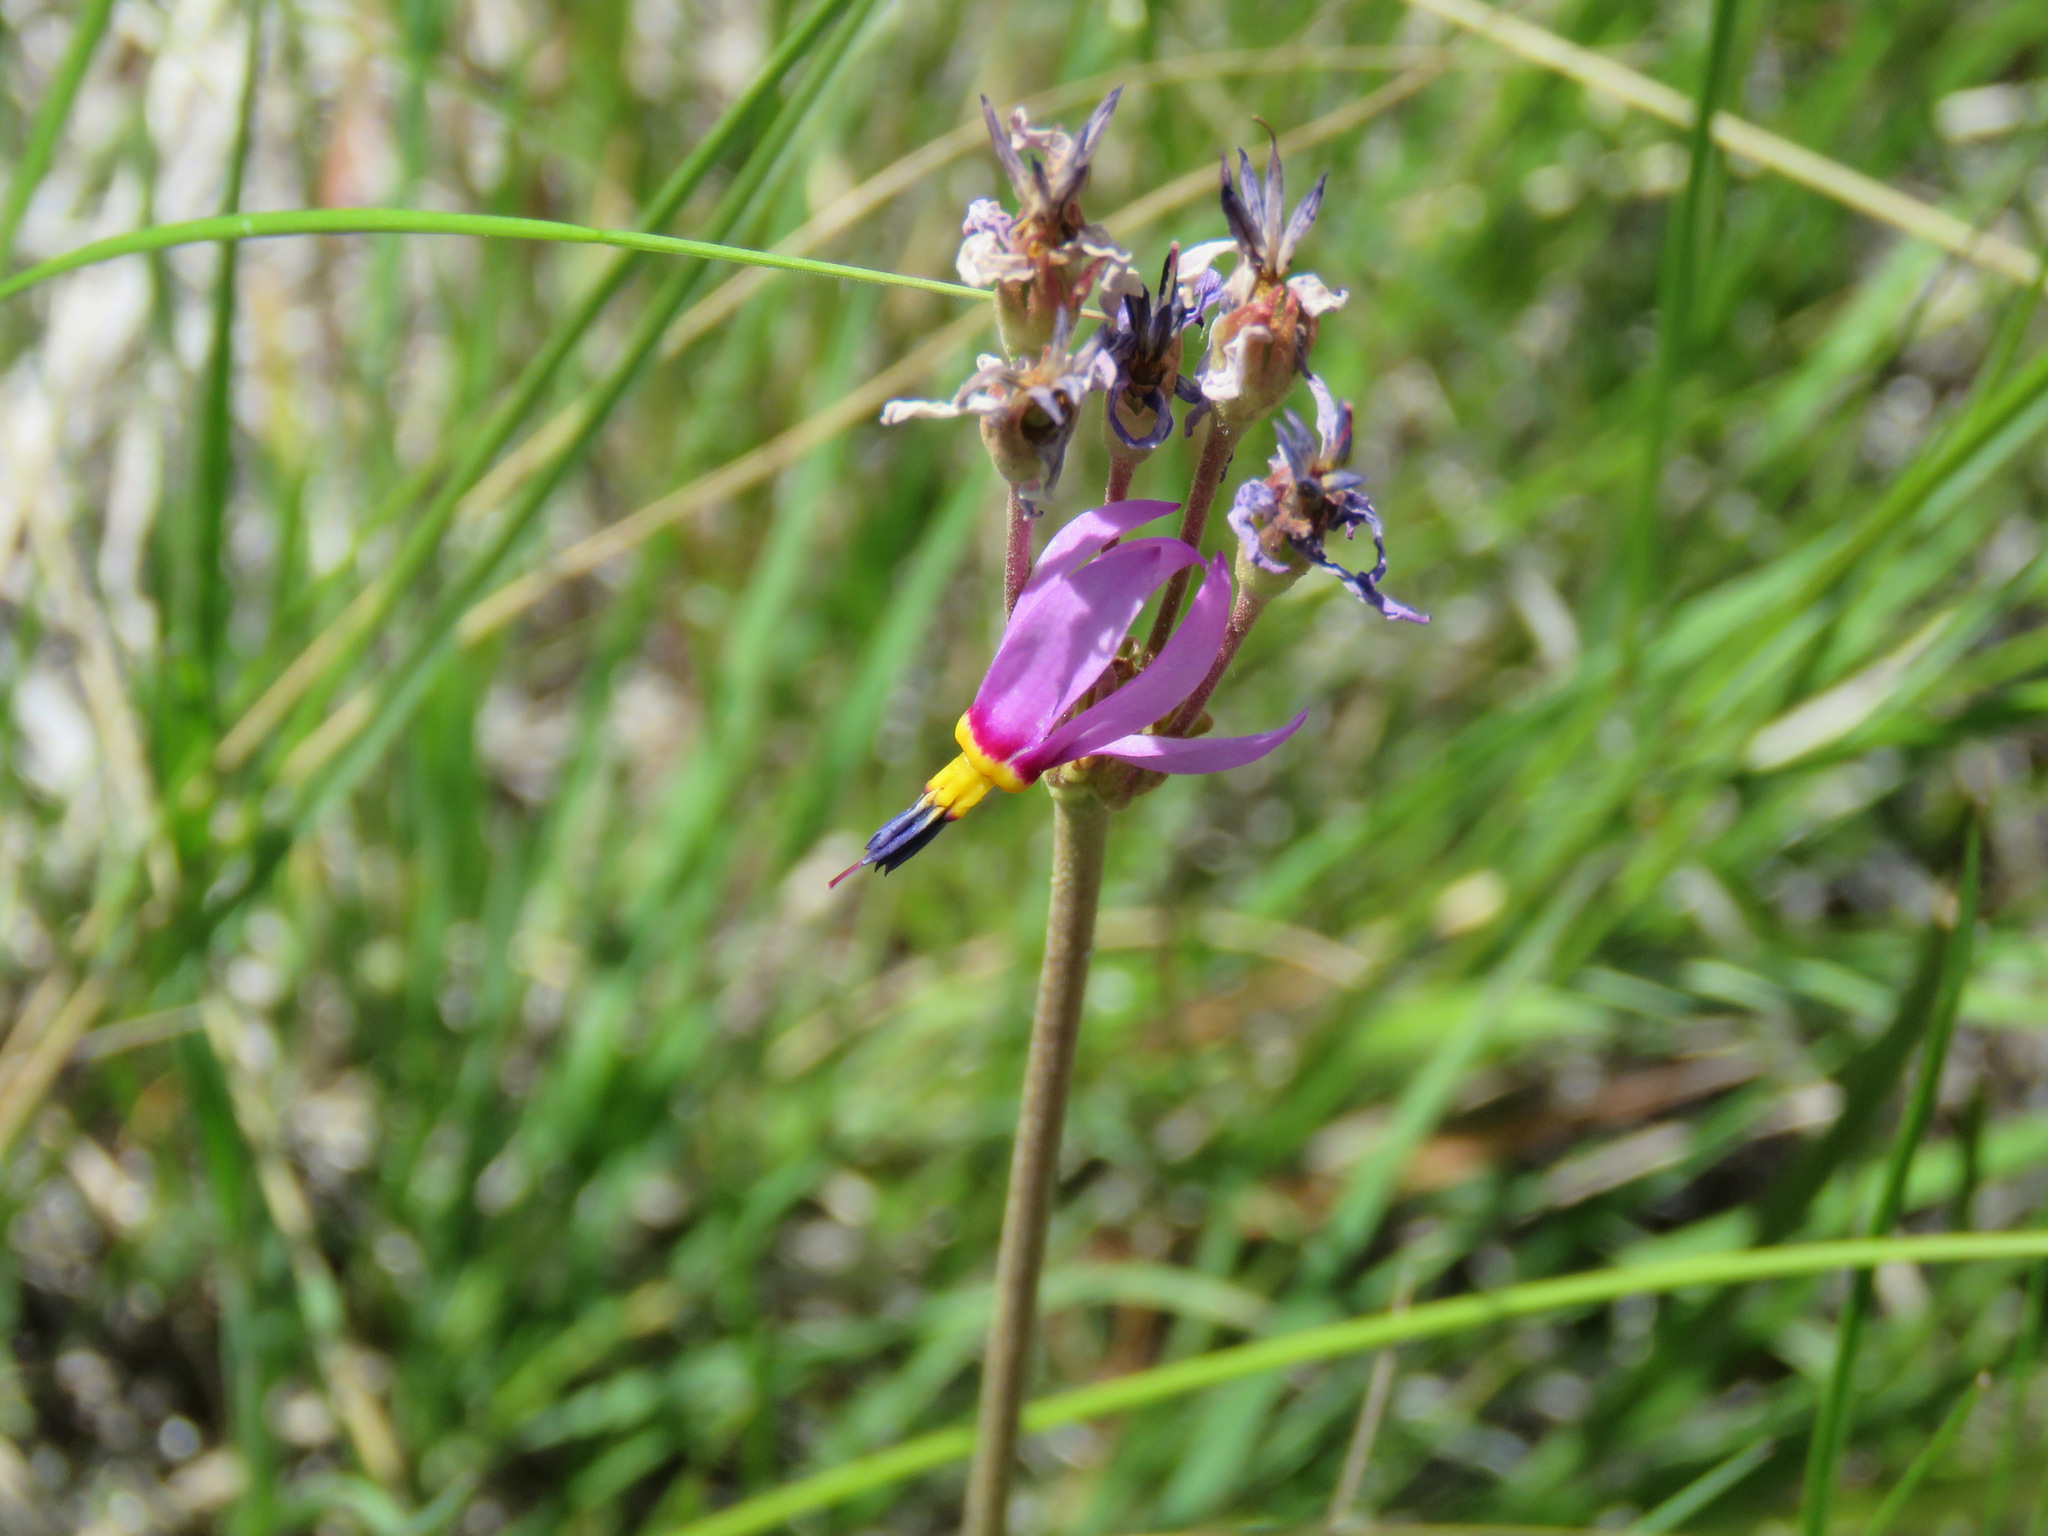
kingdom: Plantae
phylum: Tracheophyta
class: Magnoliopsida
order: Ericales
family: Primulaceae
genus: Dodecatheon
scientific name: Dodecatheon pulchellum
